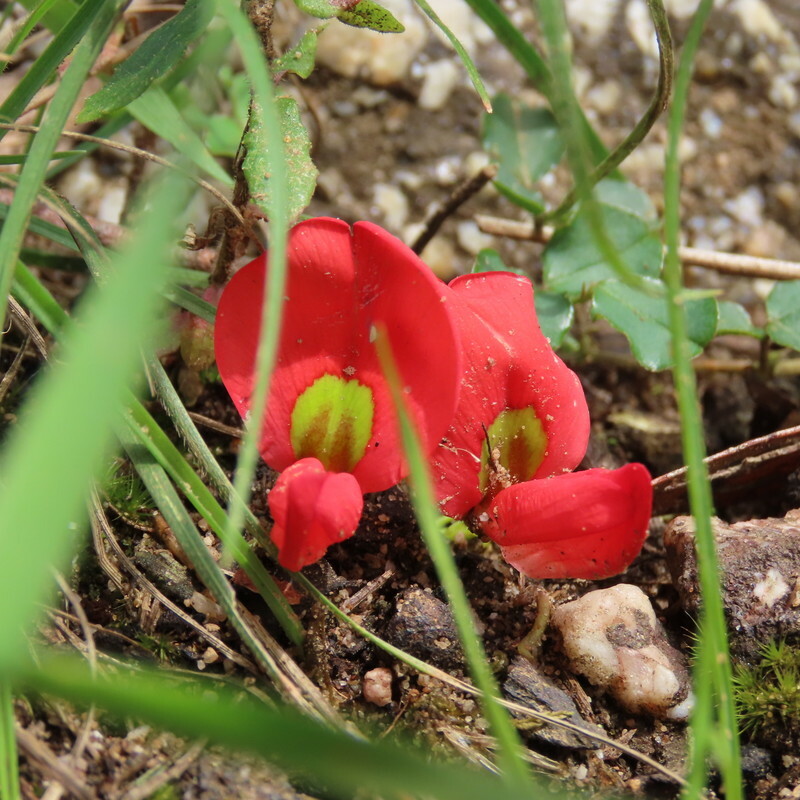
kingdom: Plantae
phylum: Tracheophyta
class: Magnoliopsida
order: Fabales
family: Fabaceae
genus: Kennedia
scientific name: Kennedia prostrata
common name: Running-postman
